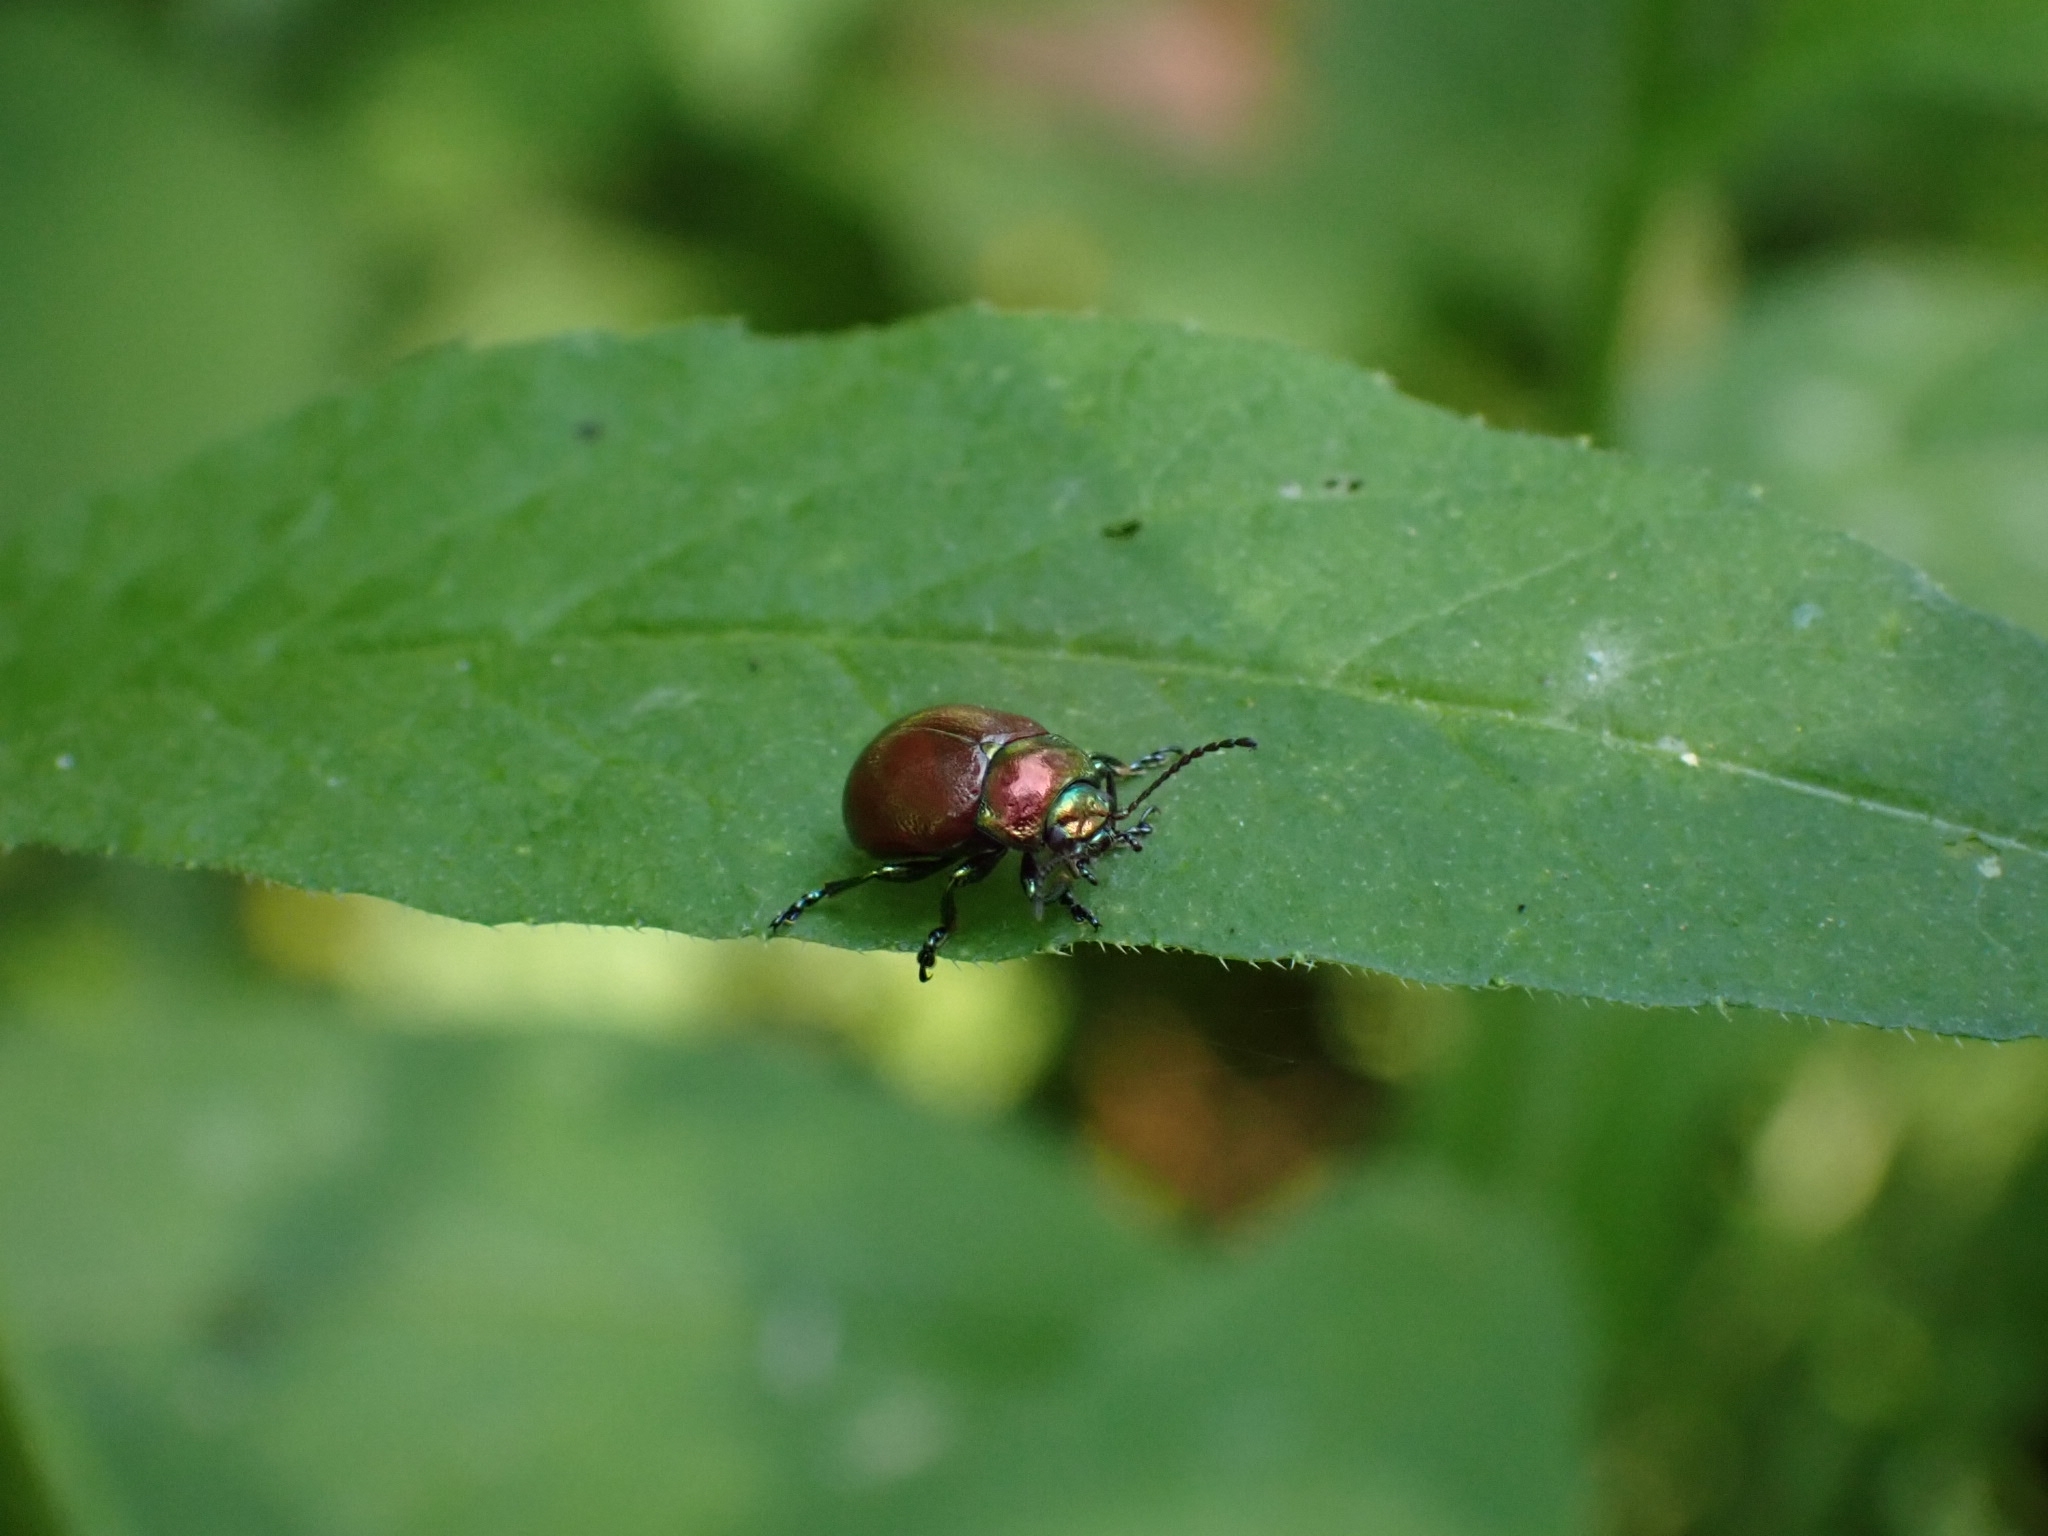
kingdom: Animalia
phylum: Arthropoda
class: Insecta
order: Coleoptera
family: Chrysomelidae
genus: Chrysomela
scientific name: Chrysomela polita
